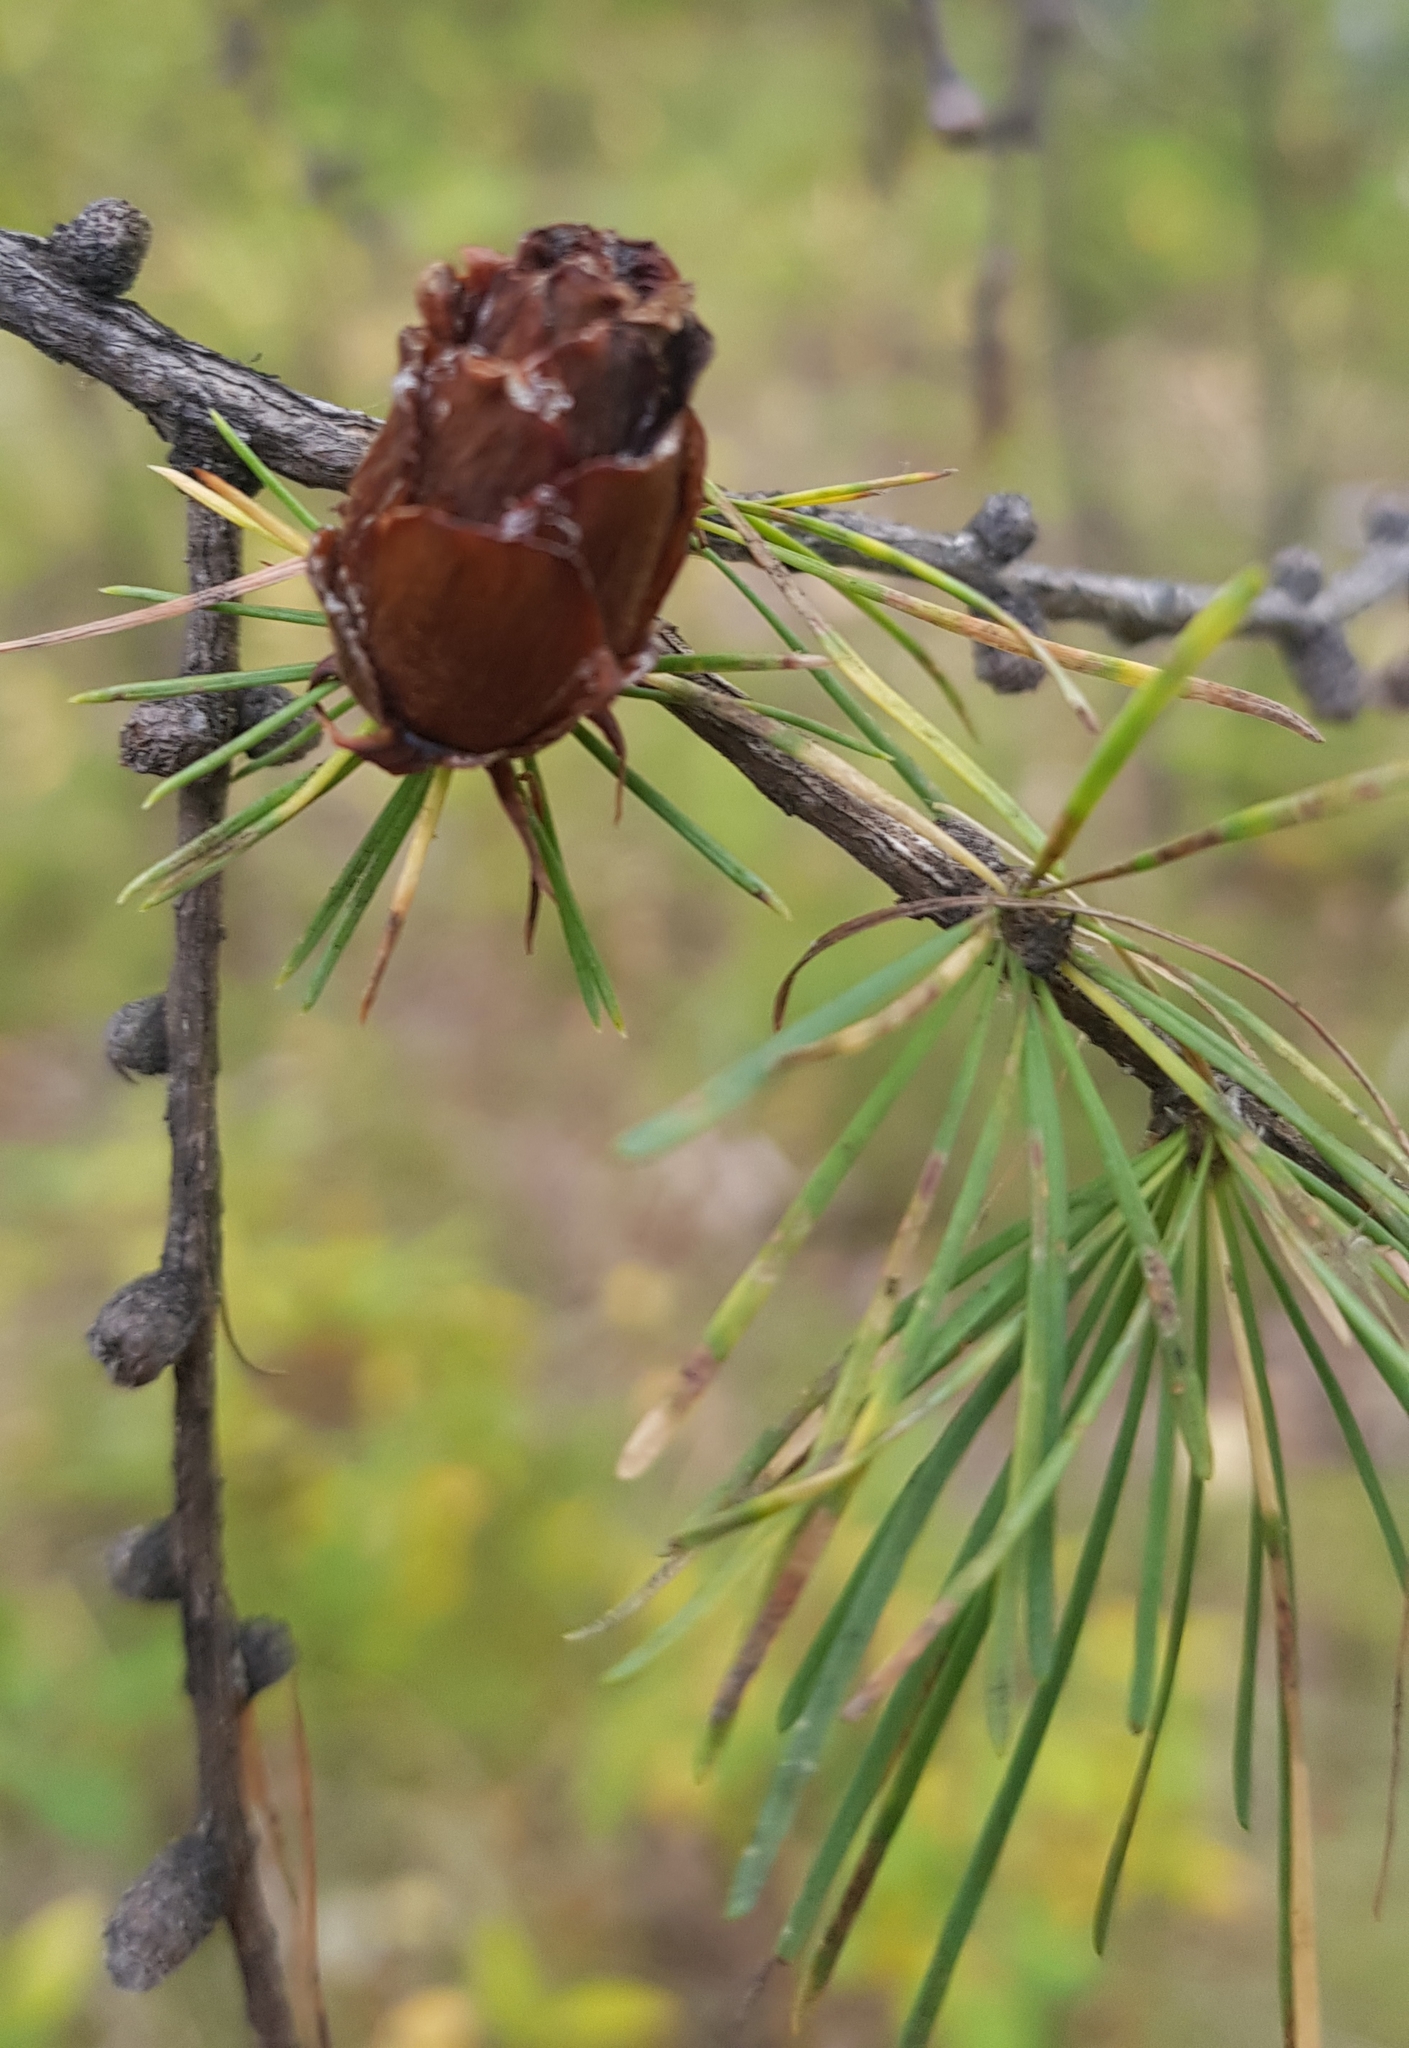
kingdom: Plantae
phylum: Tracheophyta
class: Pinopsida
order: Pinales
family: Pinaceae
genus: Larix
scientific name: Larix gmelinii
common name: Dahurian larch
